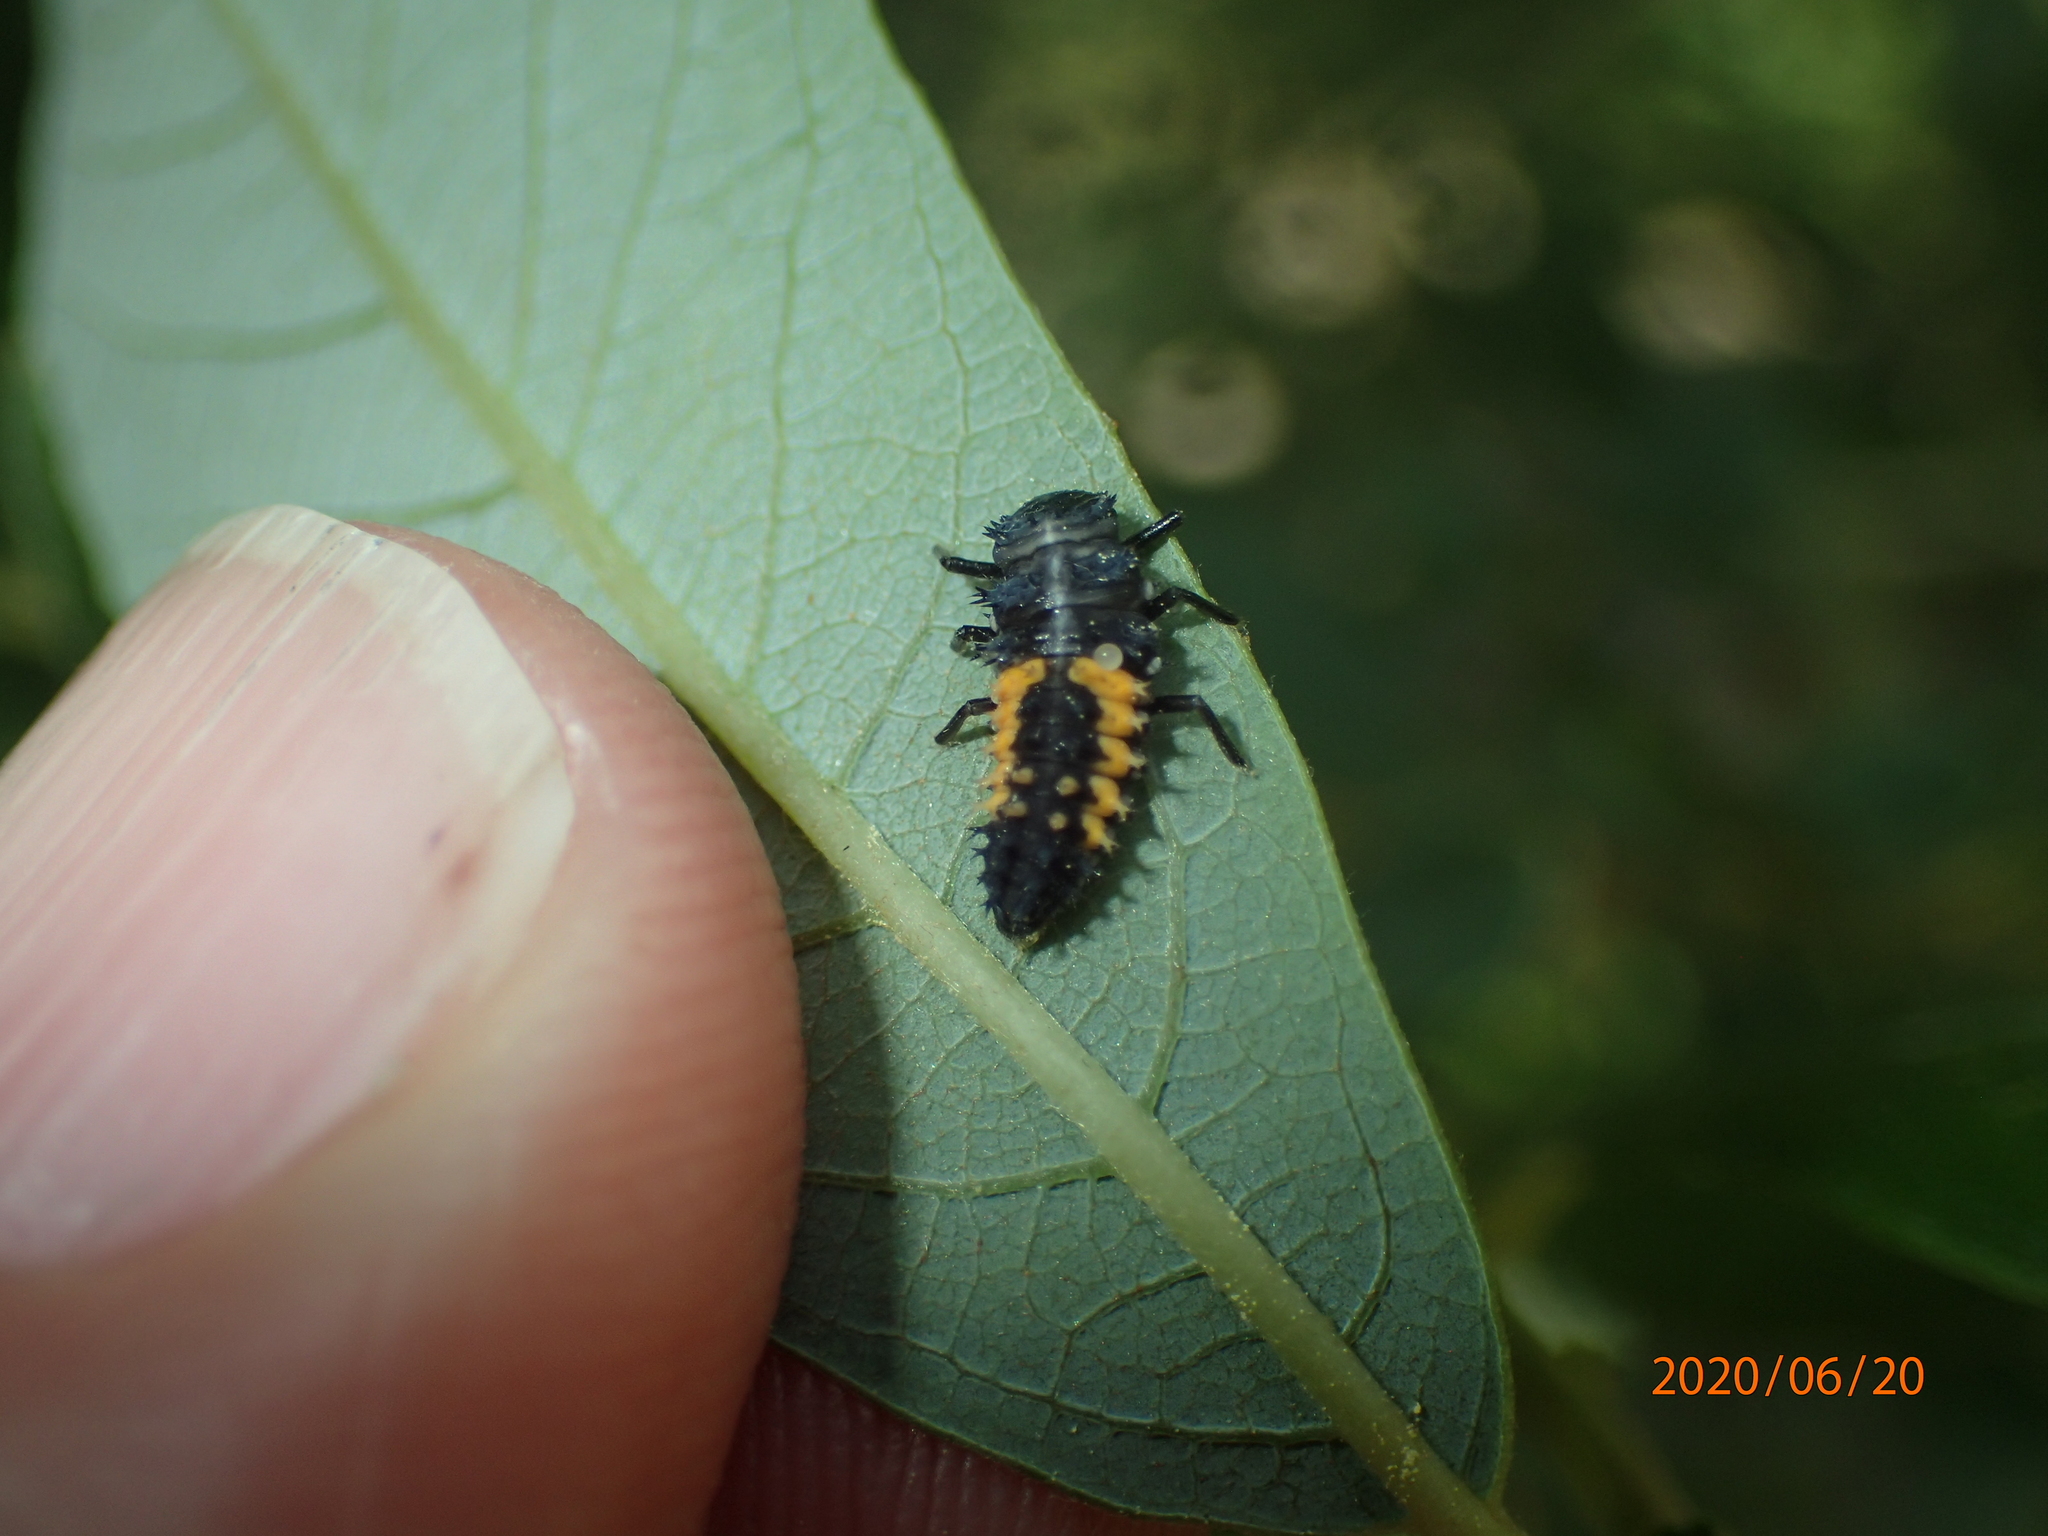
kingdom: Animalia
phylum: Arthropoda
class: Insecta
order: Coleoptera
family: Coccinellidae
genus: Harmonia
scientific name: Harmonia axyridis
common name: Harlequin ladybird
